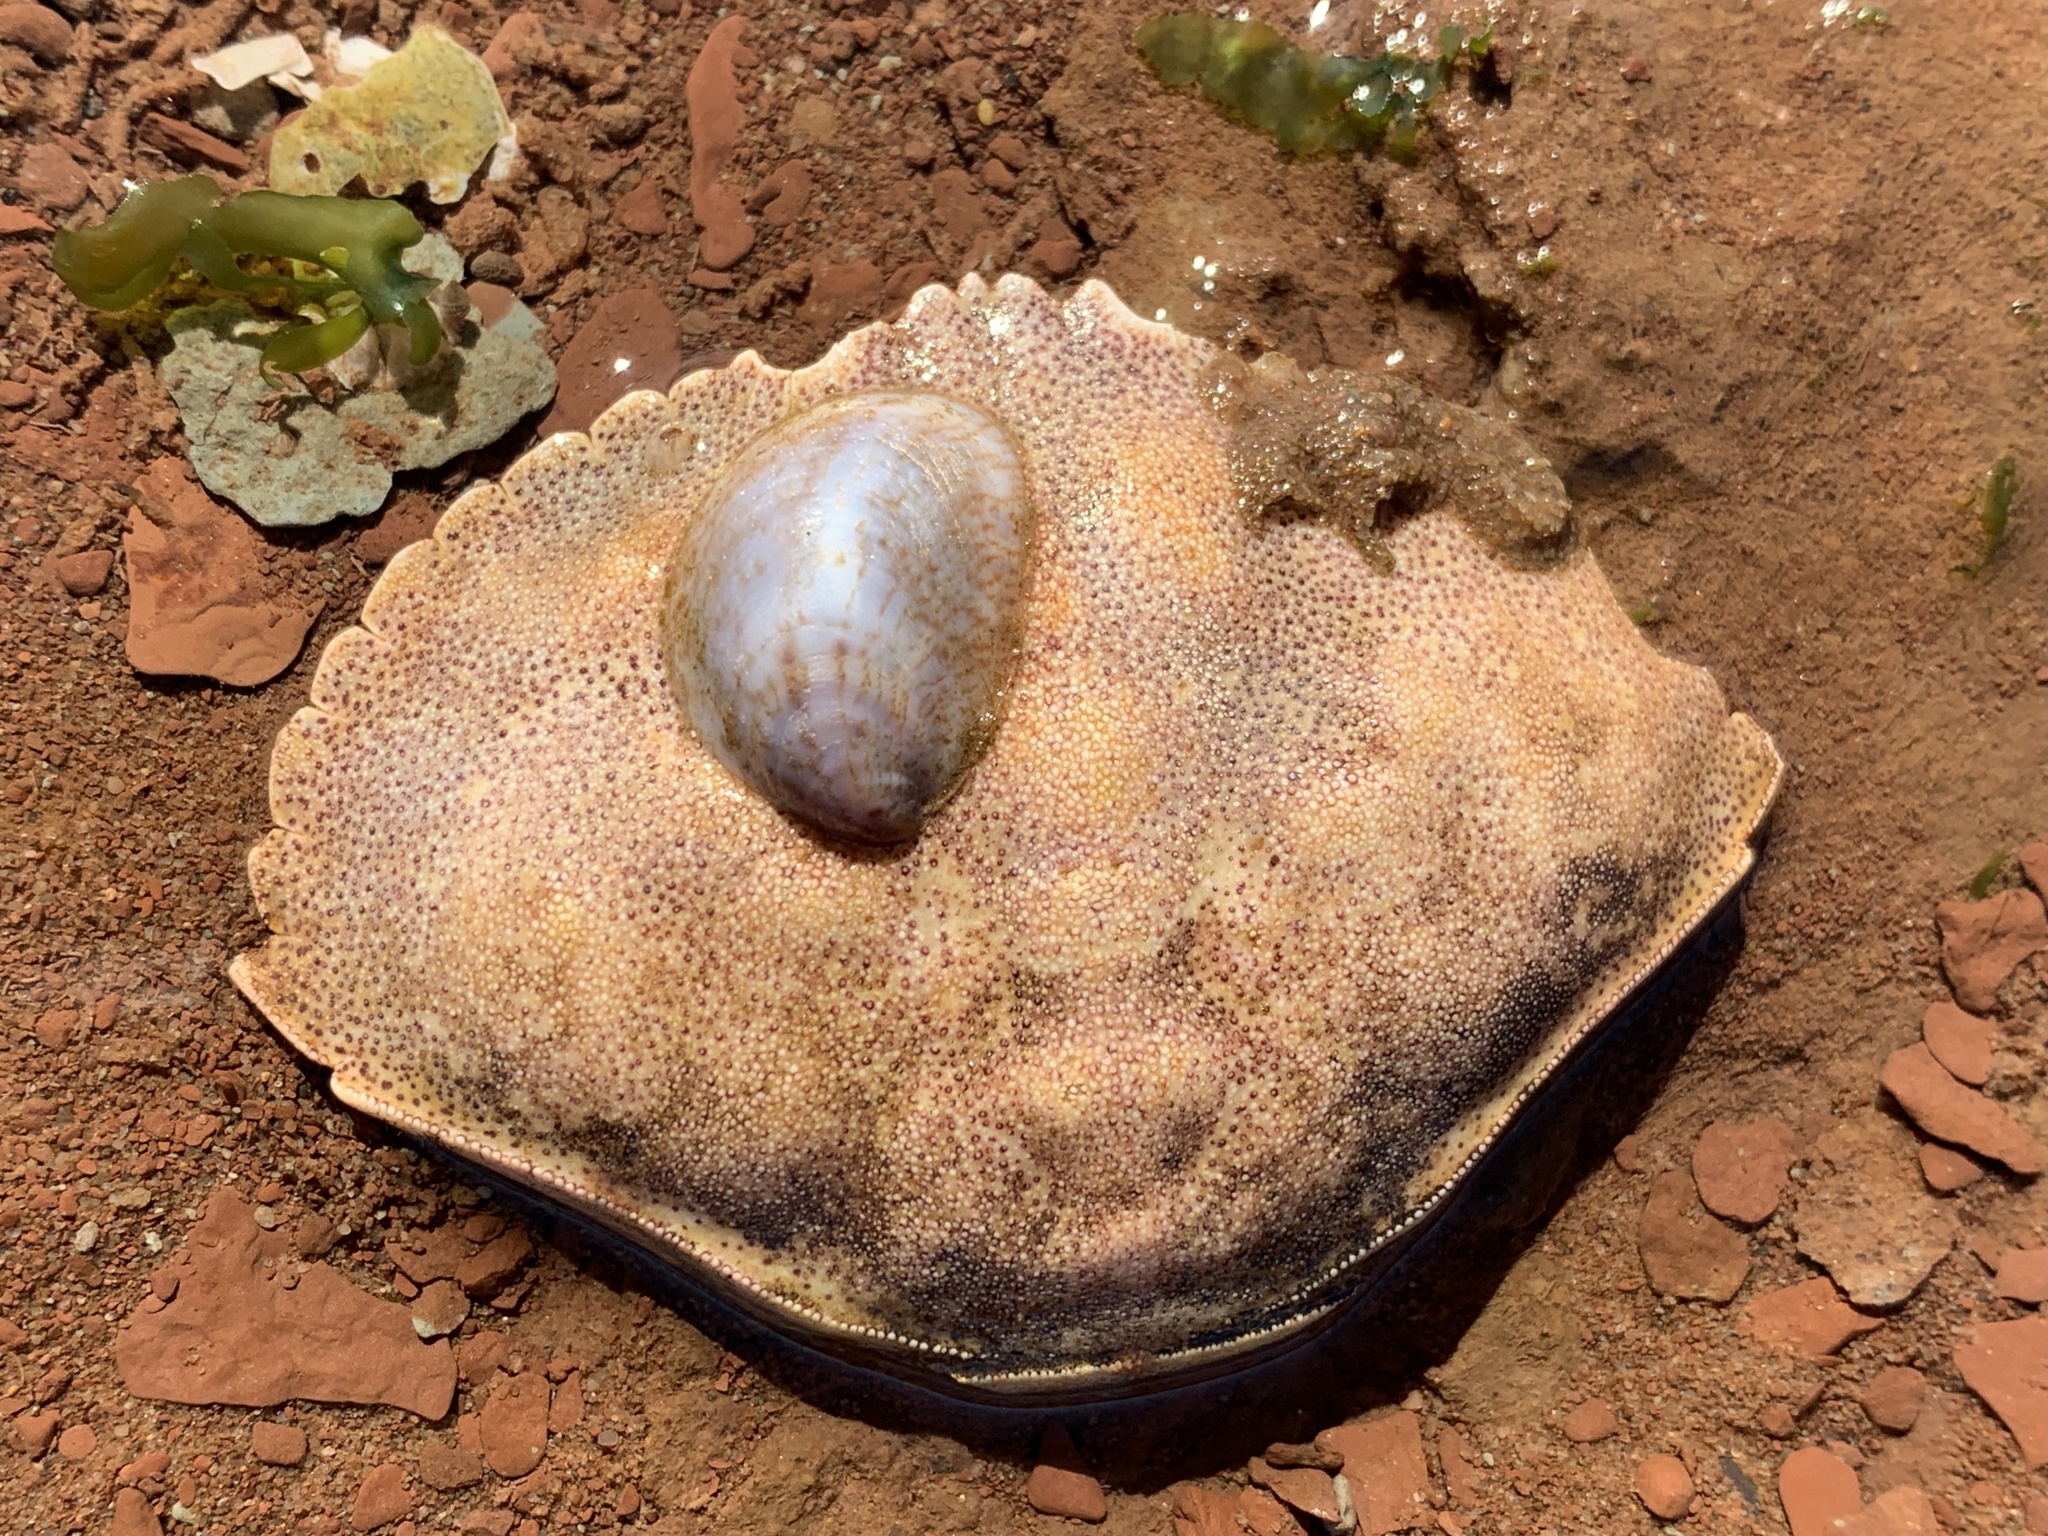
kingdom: Animalia
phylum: Arthropoda
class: Malacostraca
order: Decapoda
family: Cancridae
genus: Cancer
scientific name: Cancer irroratus
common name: Atlantic rock crab
